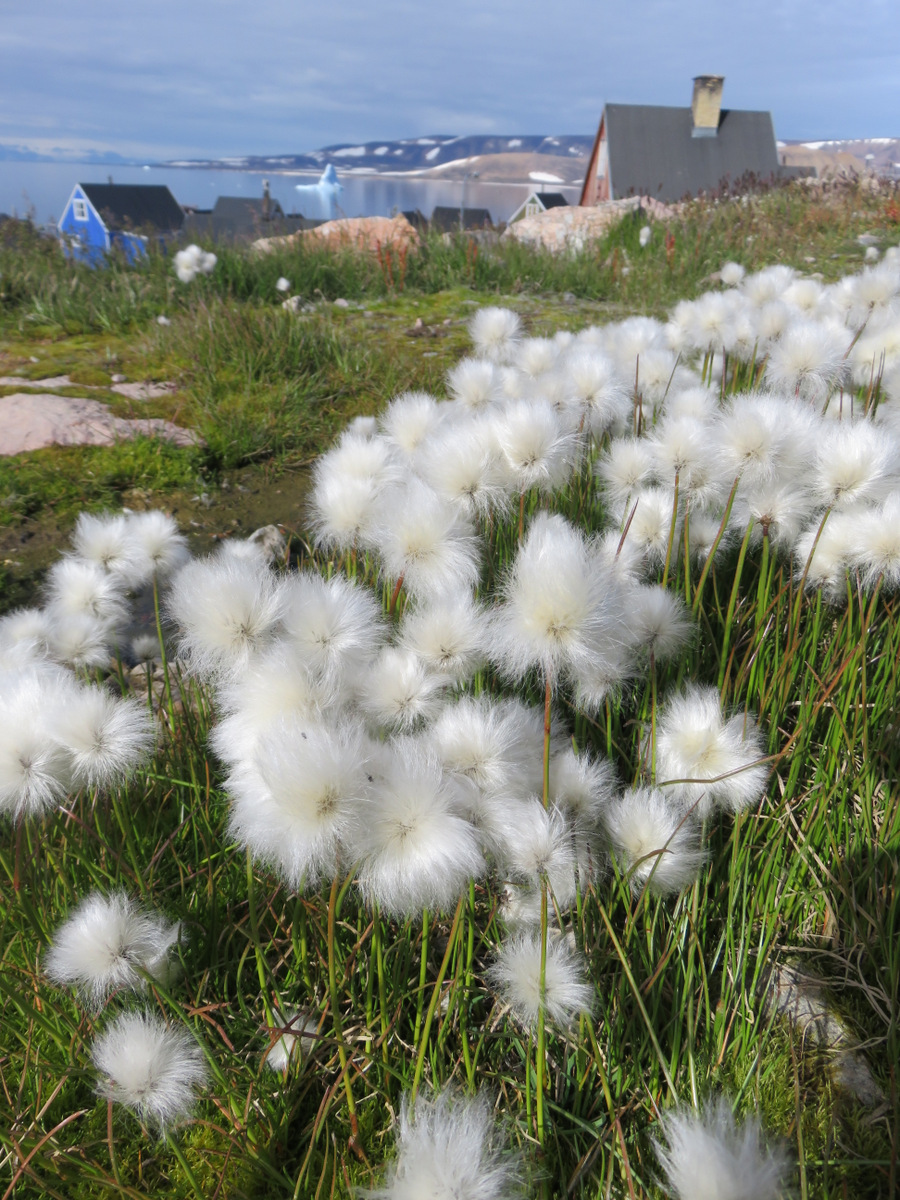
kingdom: Plantae
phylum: Tracheophyta
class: Liliopsida
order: Poales
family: Cyperaceae
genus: Eriophorum
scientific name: Eriophorum scheuchzeri
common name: Scheuchzer's cottongrass
